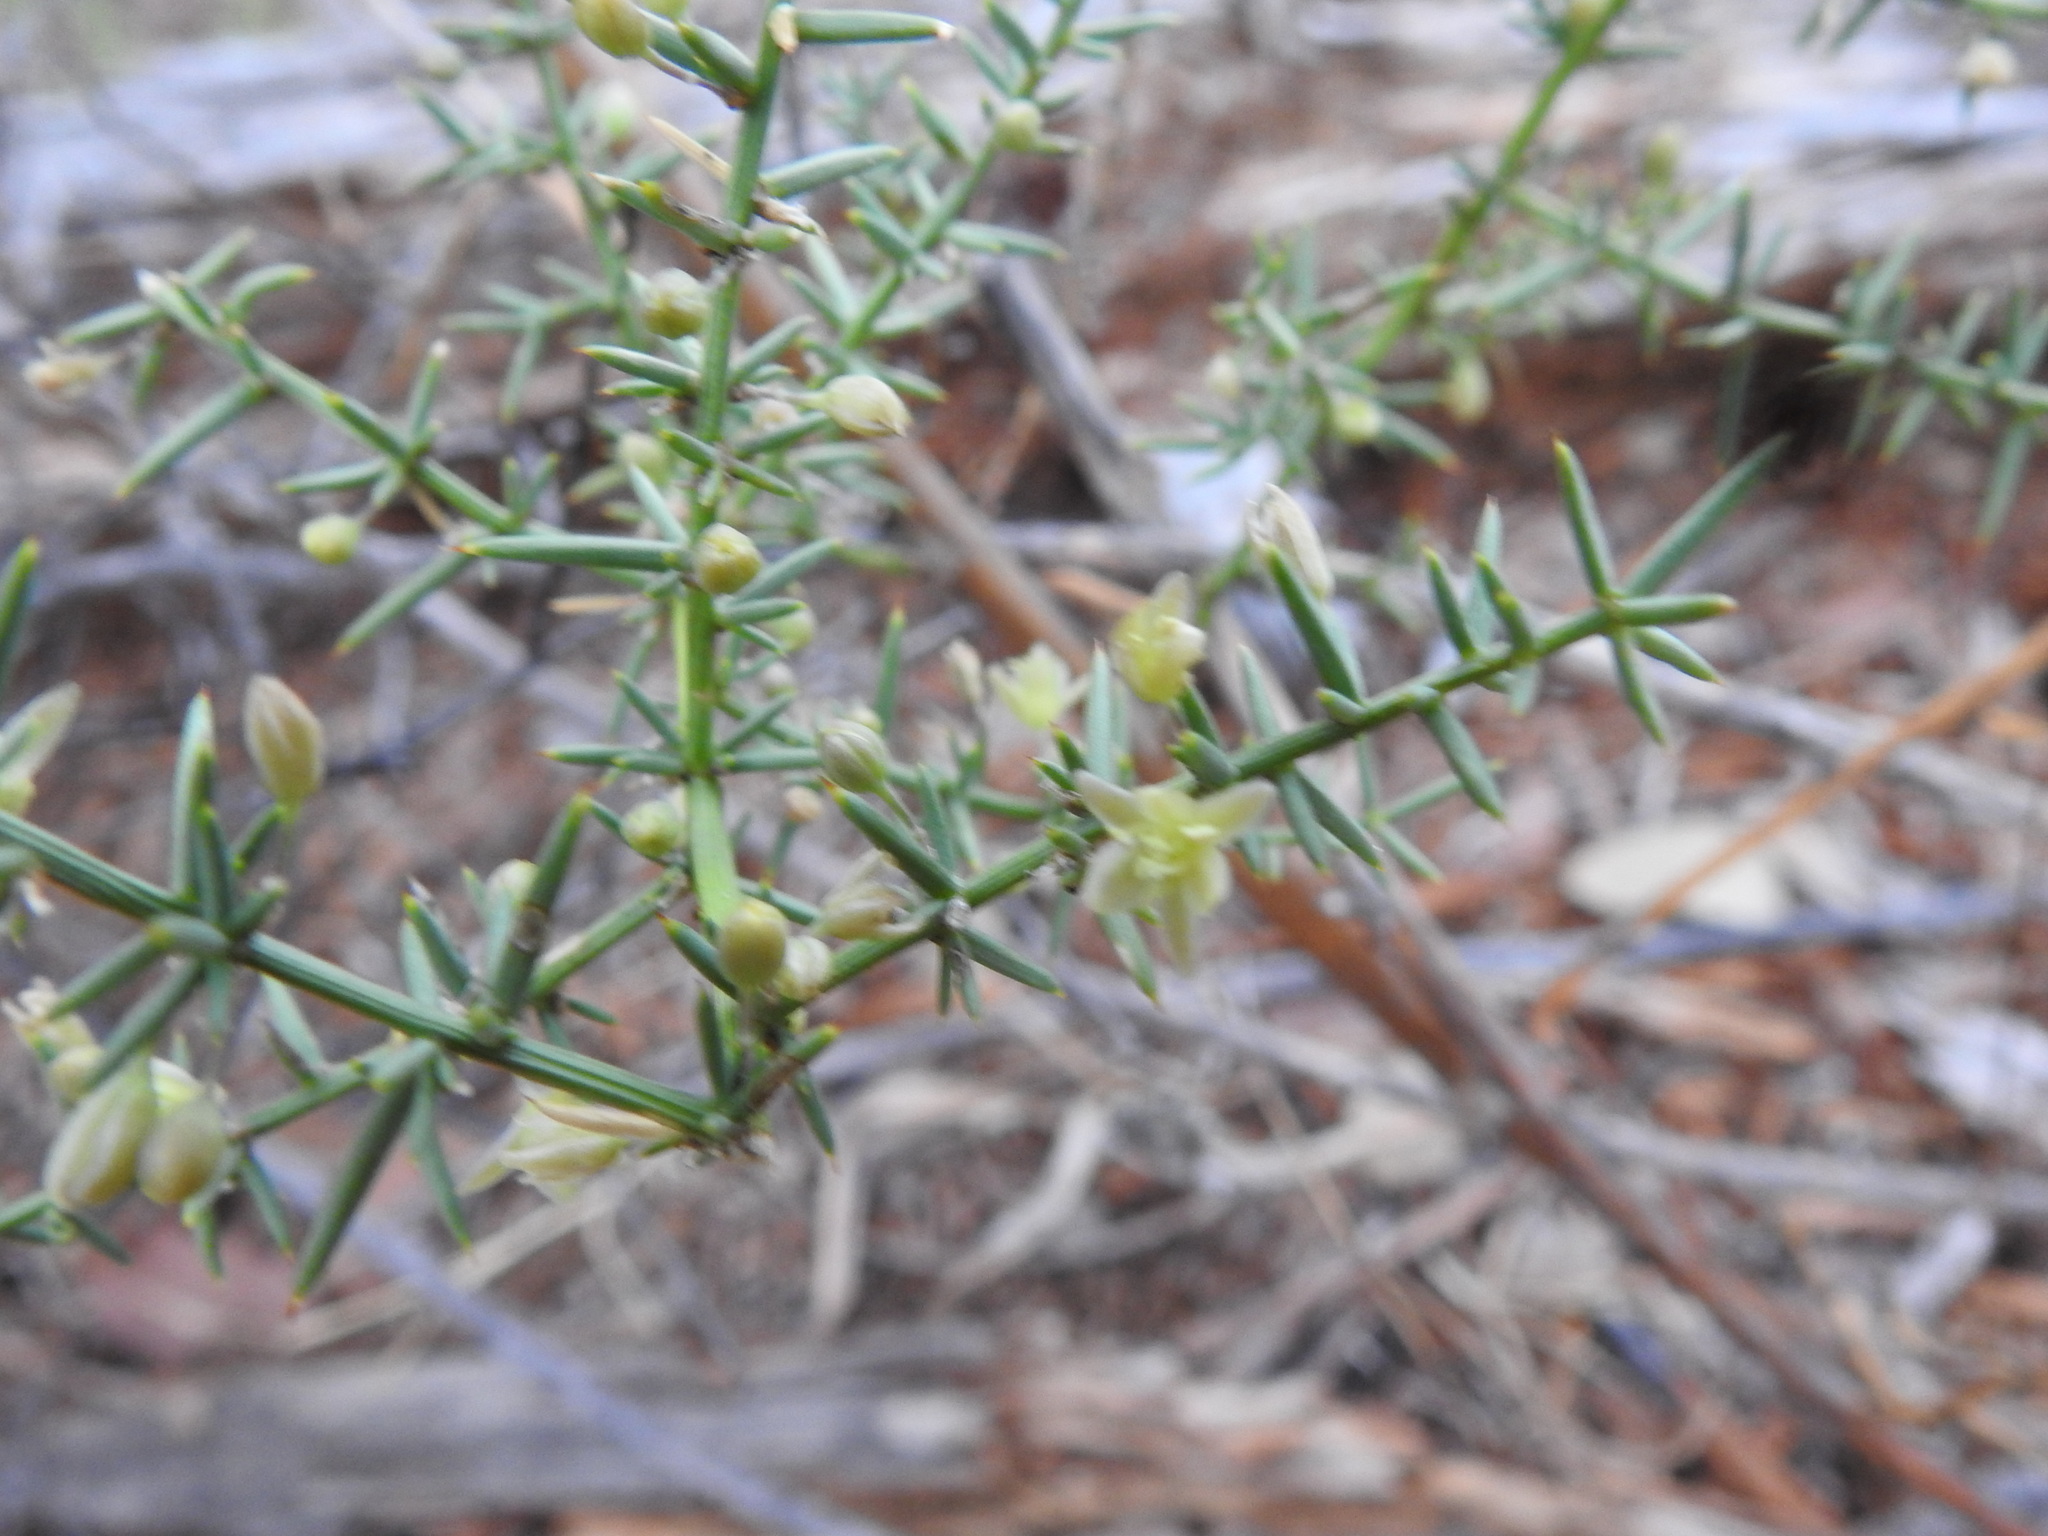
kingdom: Plantae
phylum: Tracheophyta
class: Liliopsida
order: Asparagales
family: Asparagaceae
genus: Asparagus
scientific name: Asparagus aphyllus
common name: Mediterranean asparagus
